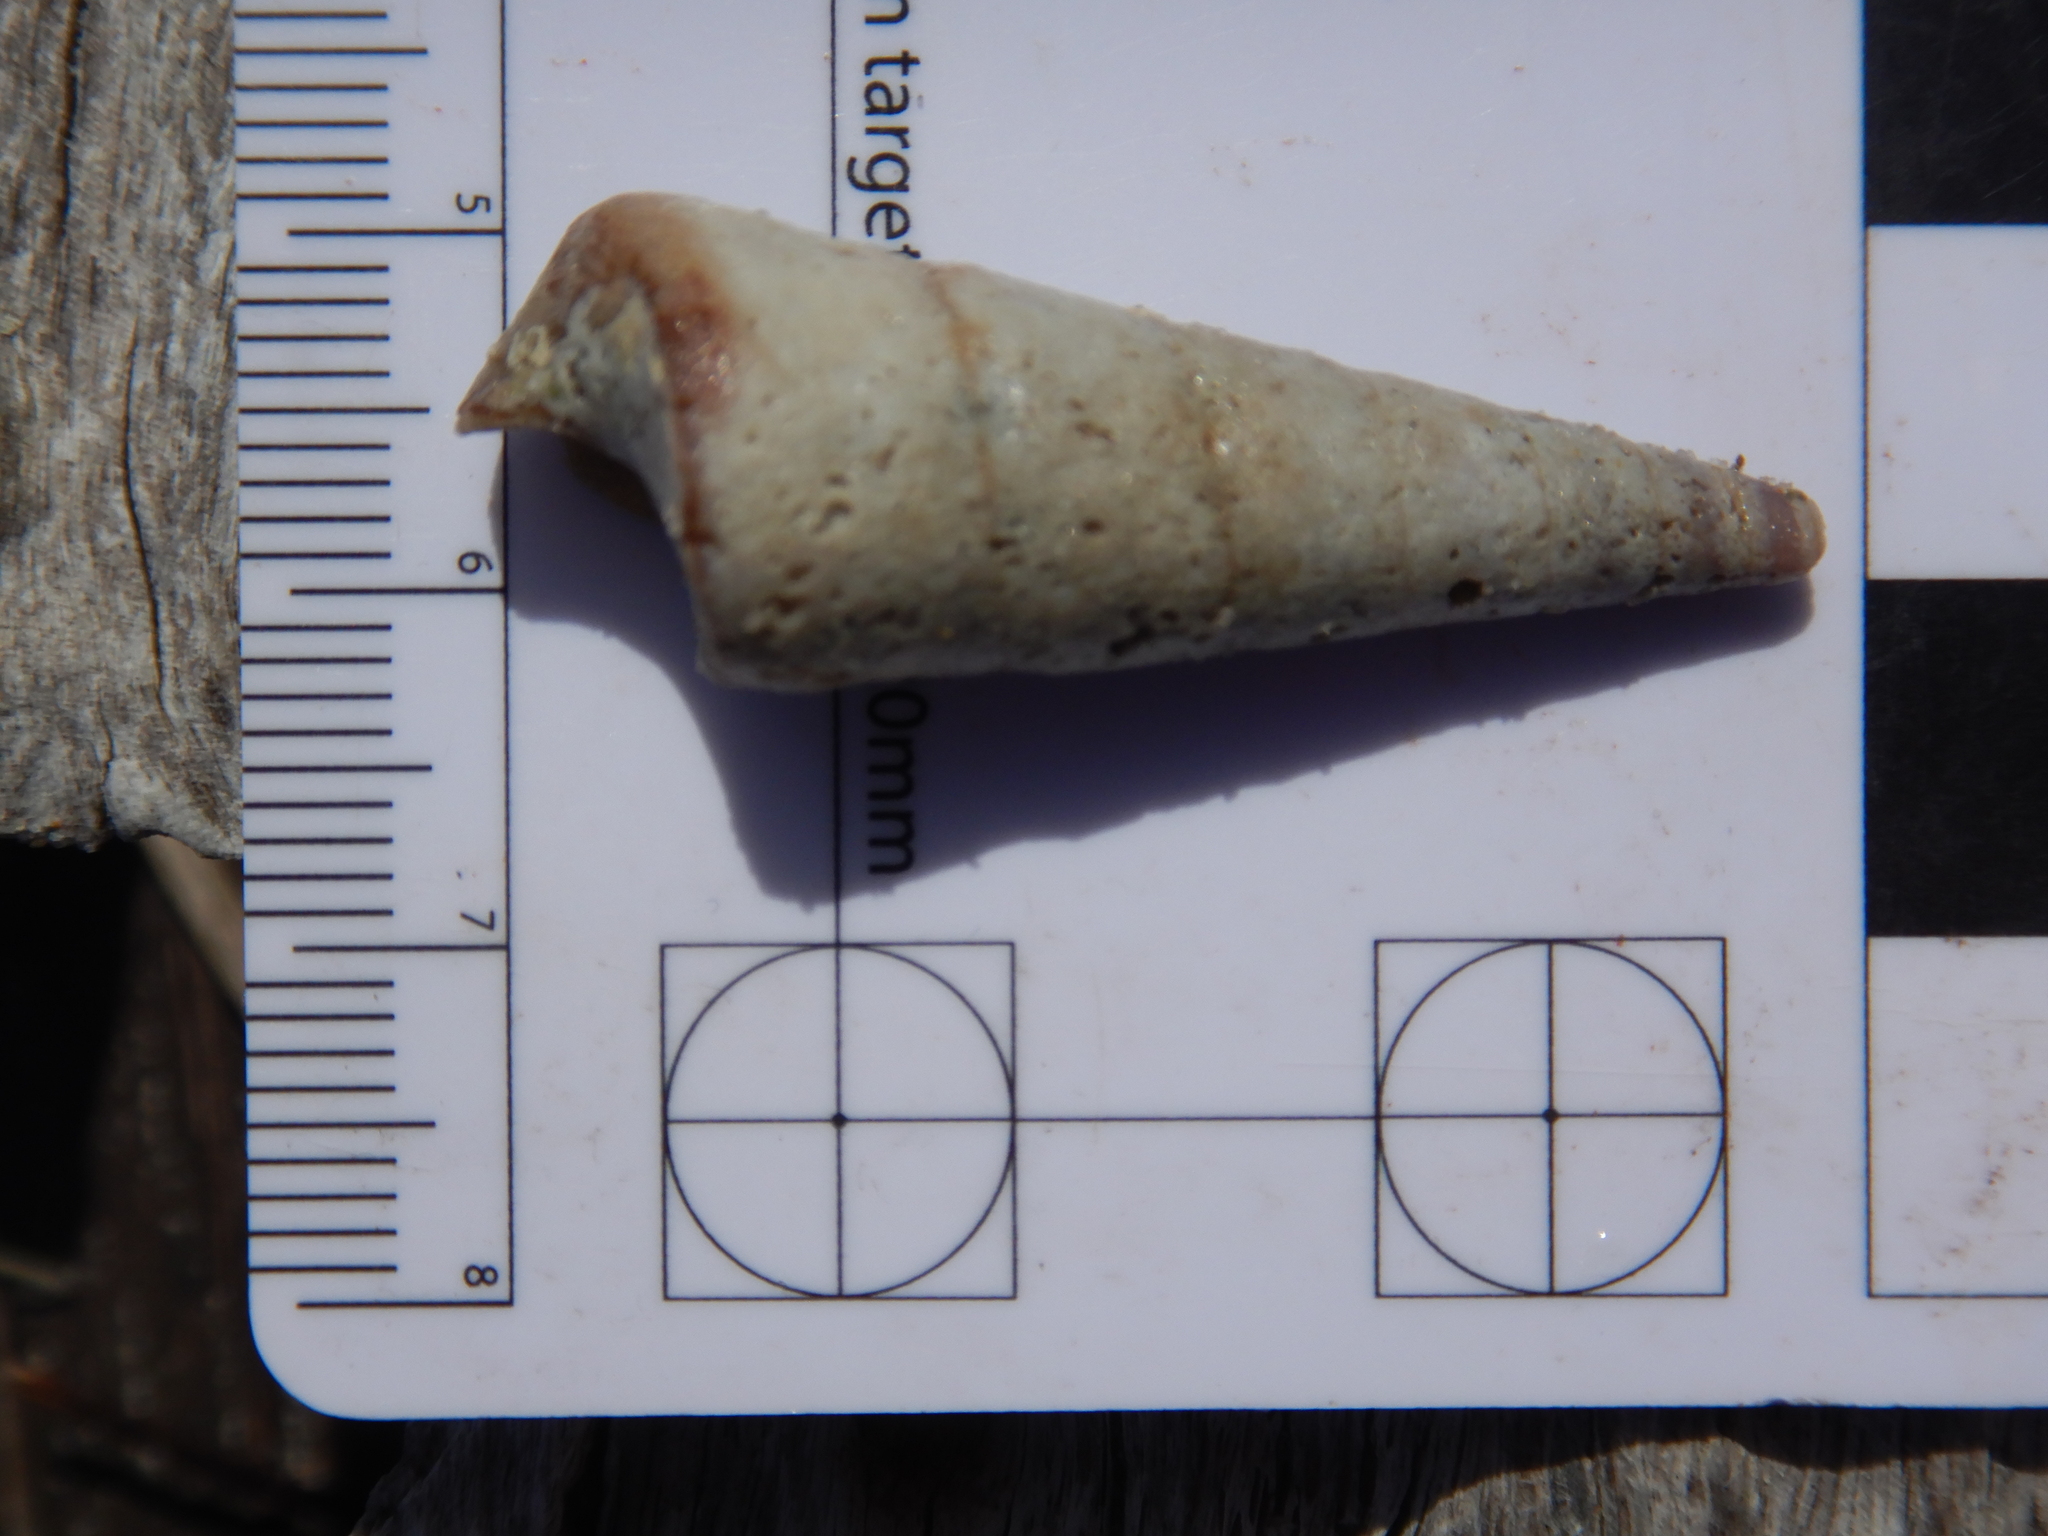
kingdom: Animalia
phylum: Mollusca
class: Gastropoda
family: Turritellidae
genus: Maoricolpus
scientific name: Maoricolpus roseus
